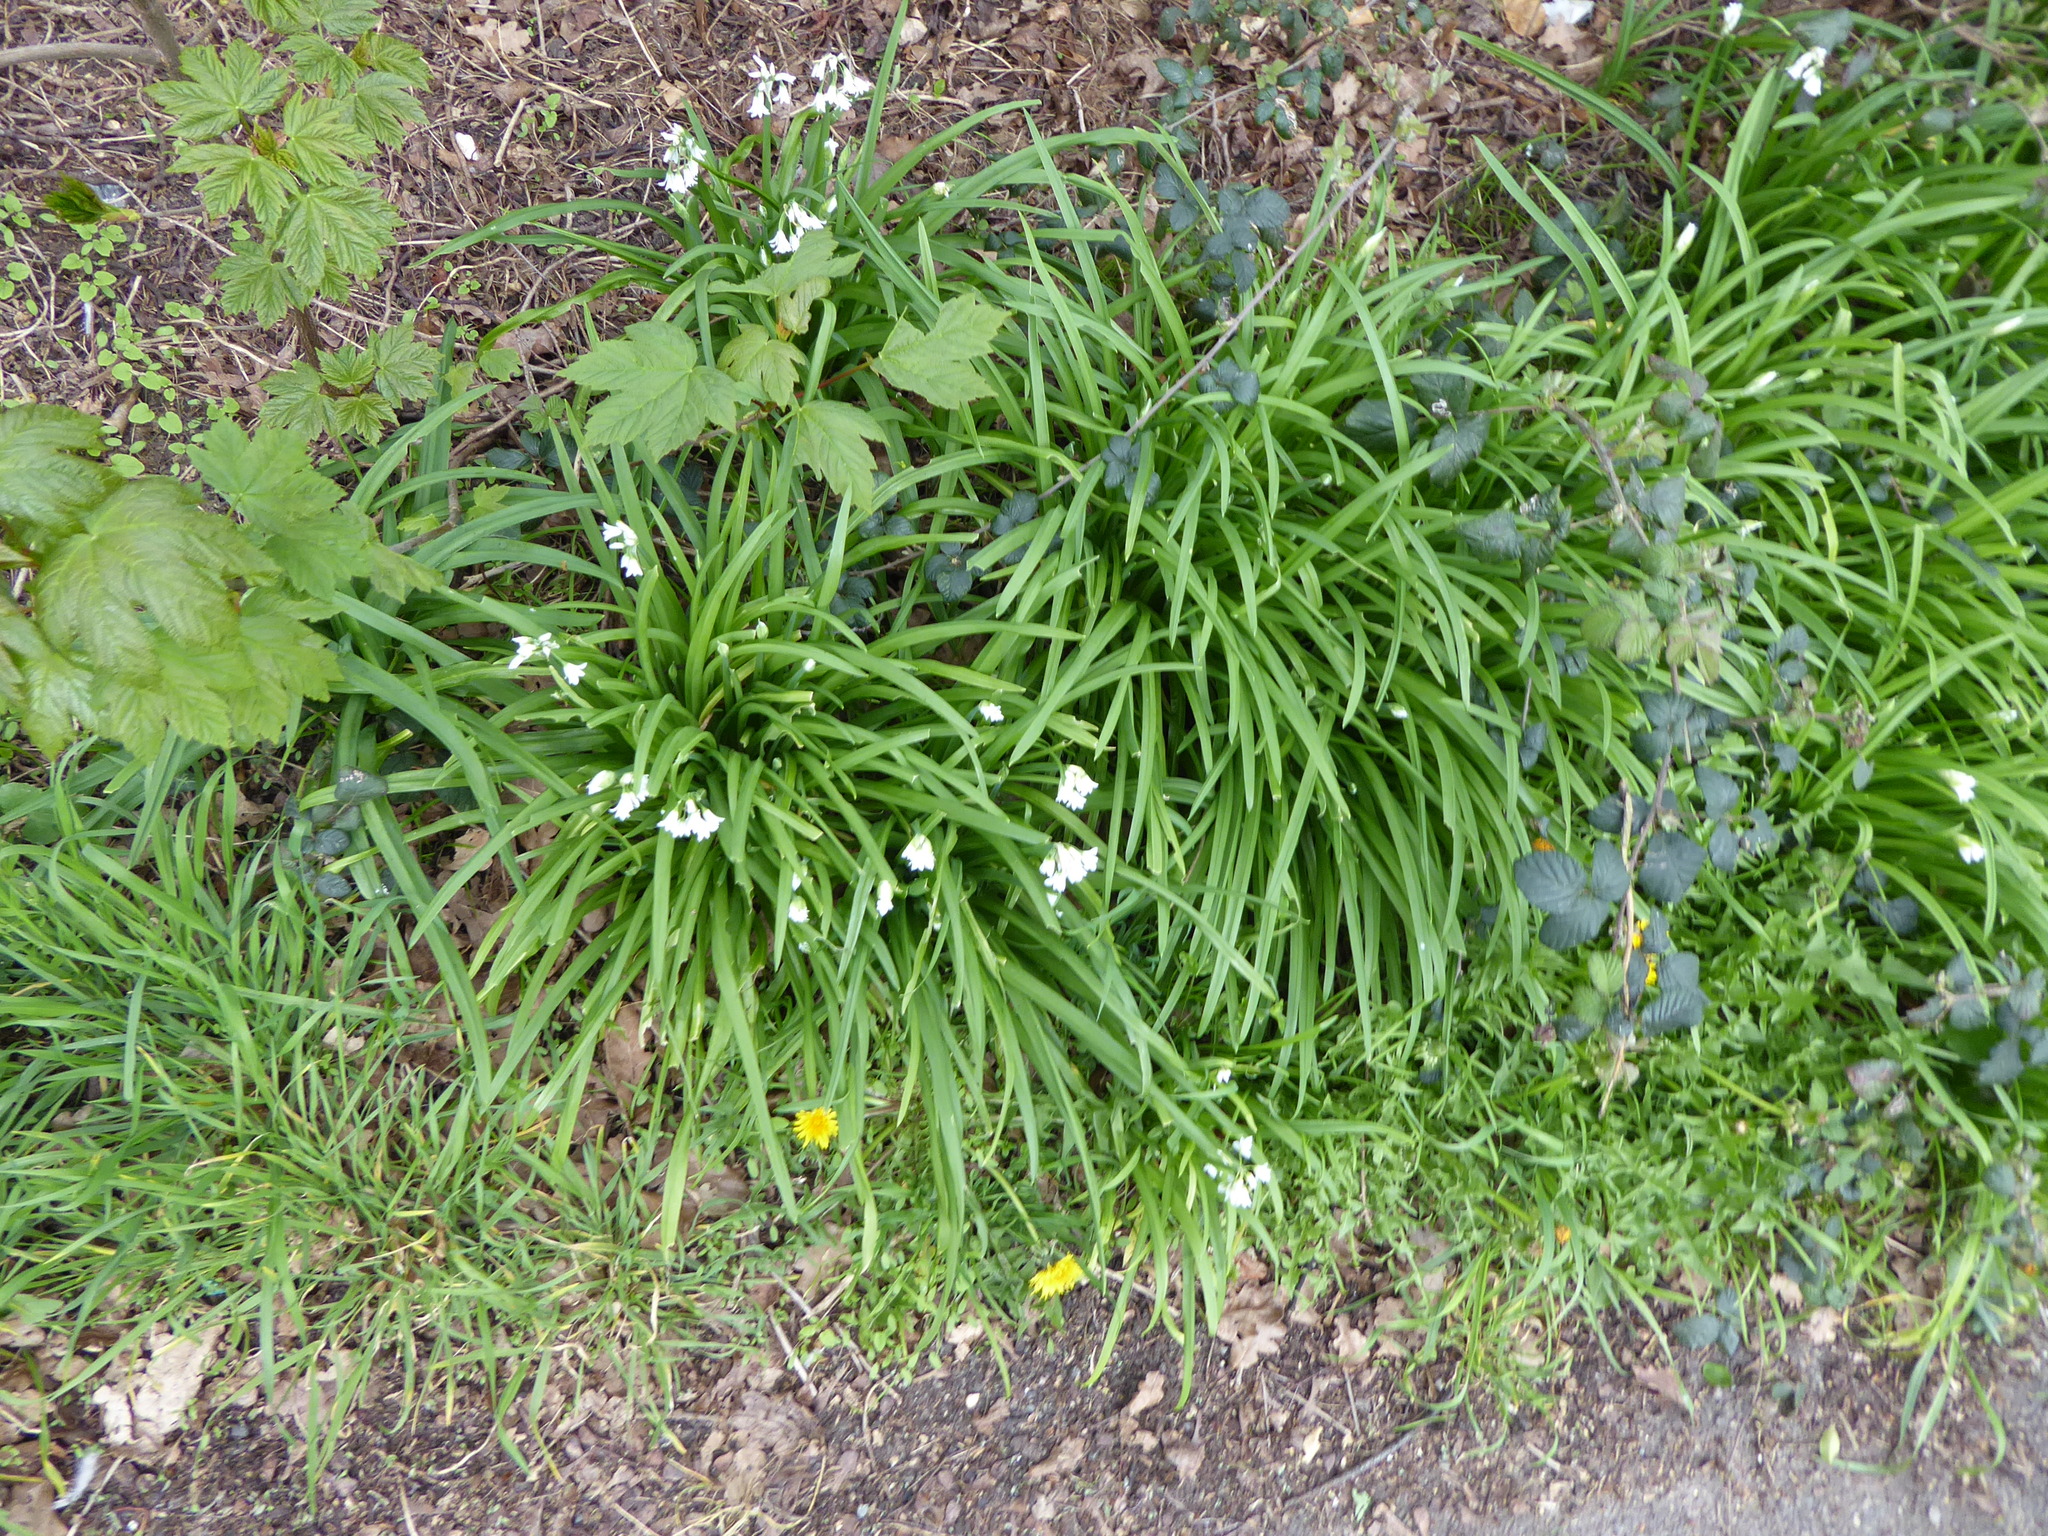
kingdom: Plantae
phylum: Tracheophyta
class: Liliopsida
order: Asparagales
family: Amaryllidaceae
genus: Allium
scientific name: Allium triquetrum
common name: Three-cornered garlic
